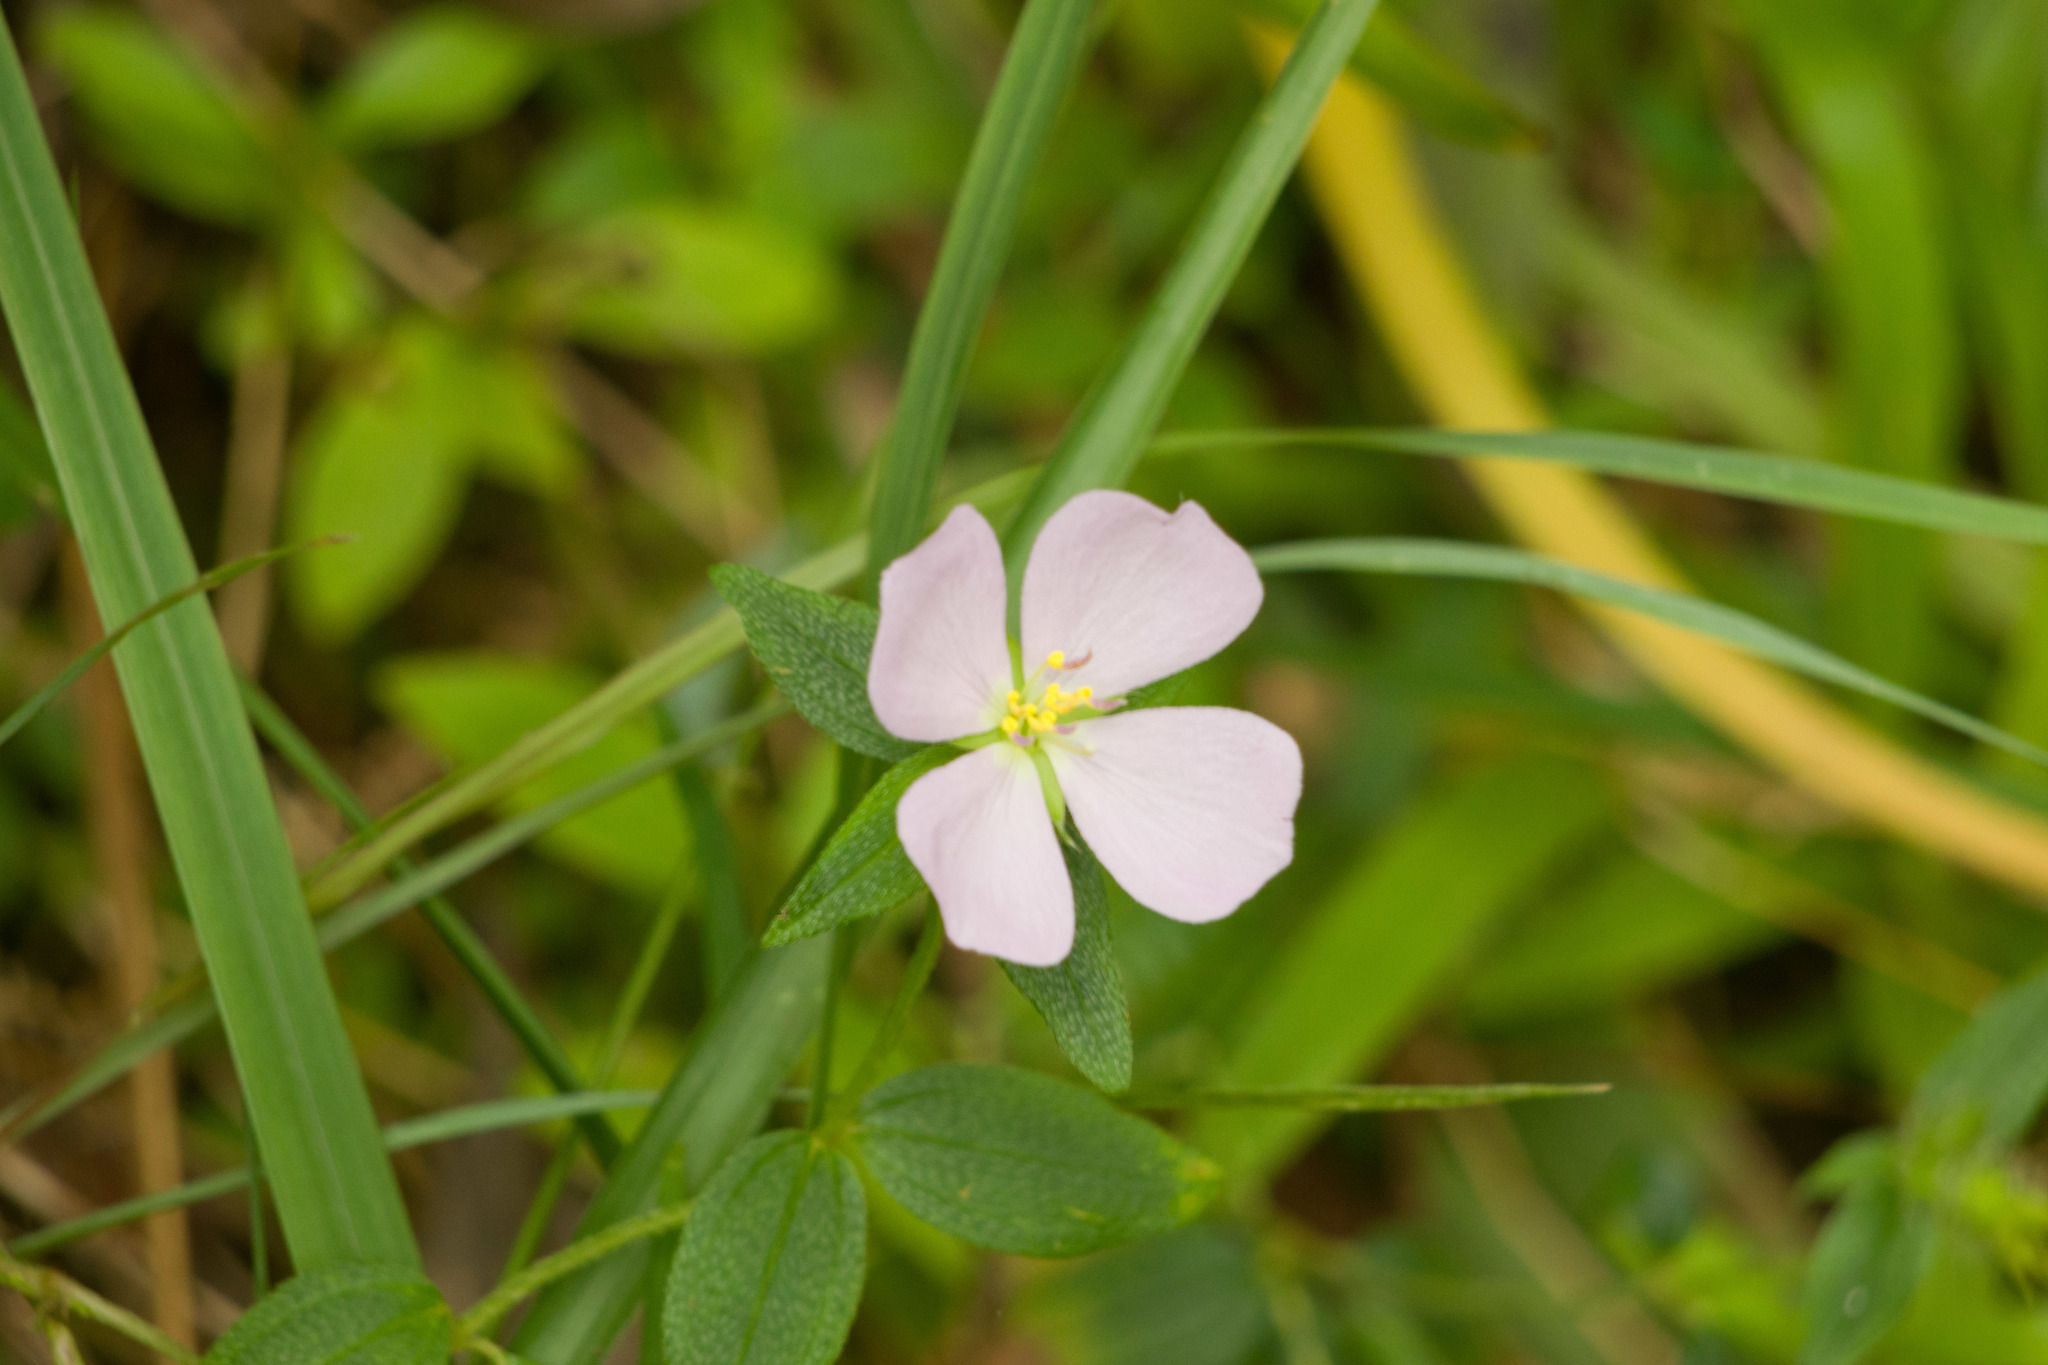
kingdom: Plantae
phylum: Tracheophyta
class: Magnoliopsida
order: Myrtales
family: Melastomataceae
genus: Pterolepis
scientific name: Pterolepis glomerata
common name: False meadowbeauty
